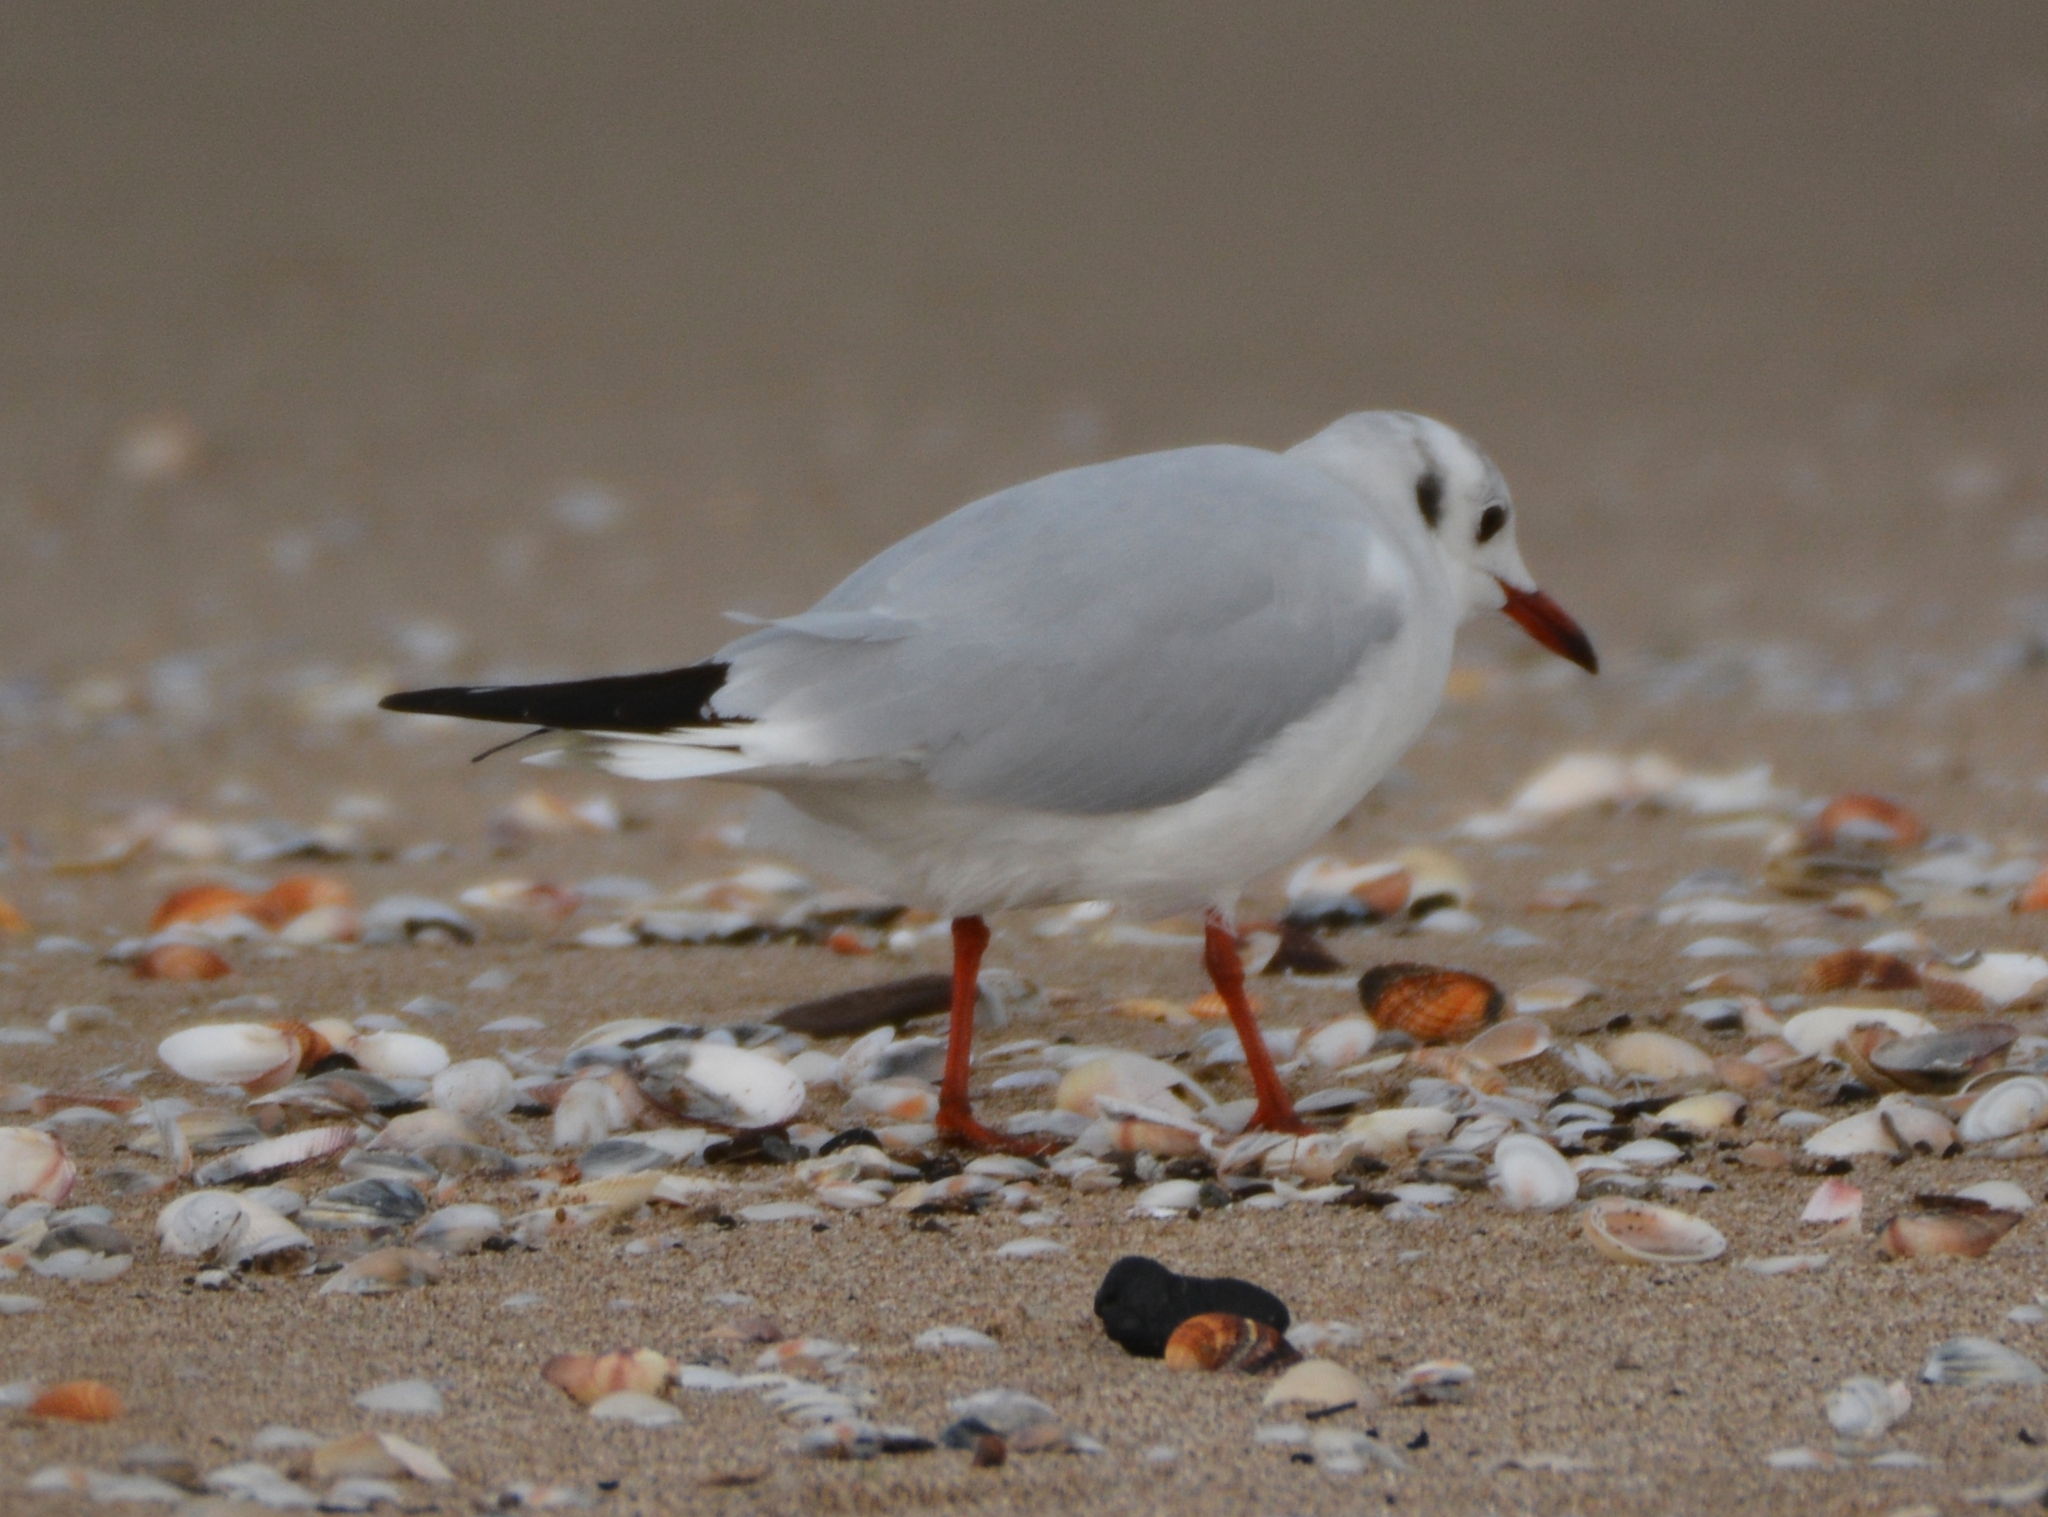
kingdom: Animalia
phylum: Chordata
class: Aves
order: Charadriiformes
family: Laridae
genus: Chroicocephalus
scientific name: Chroicocephalus ridibundus
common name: Black-headed gull
